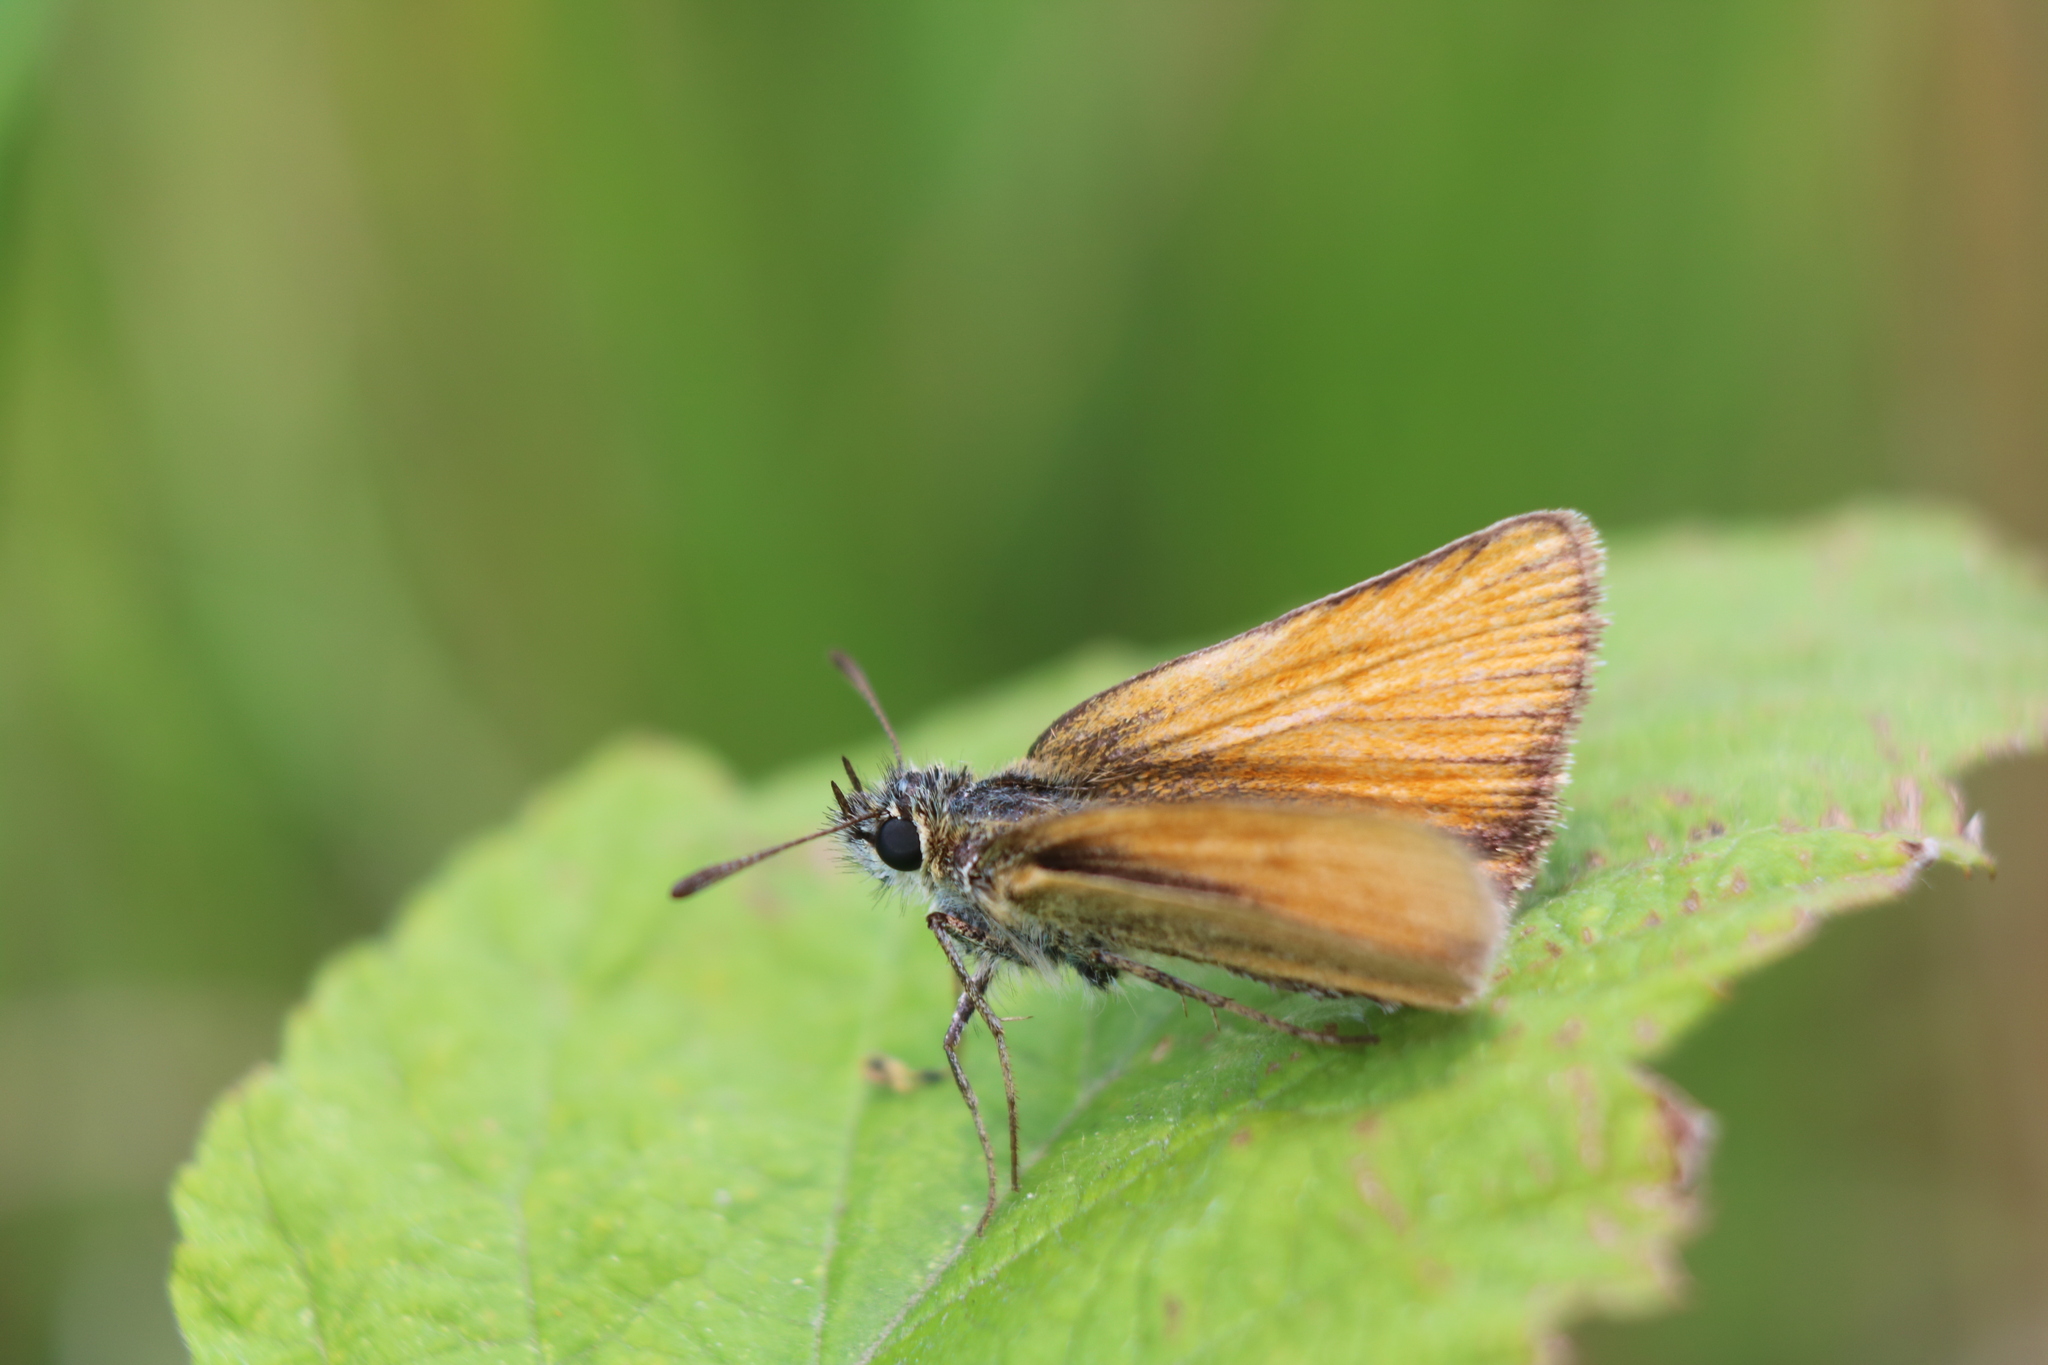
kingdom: Animalia
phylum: Arthropoda
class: Insecta
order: Lepidoptera
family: Hesperiidae
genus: Thymelicus
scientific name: Thymelicus lineola
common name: Essex skipper
